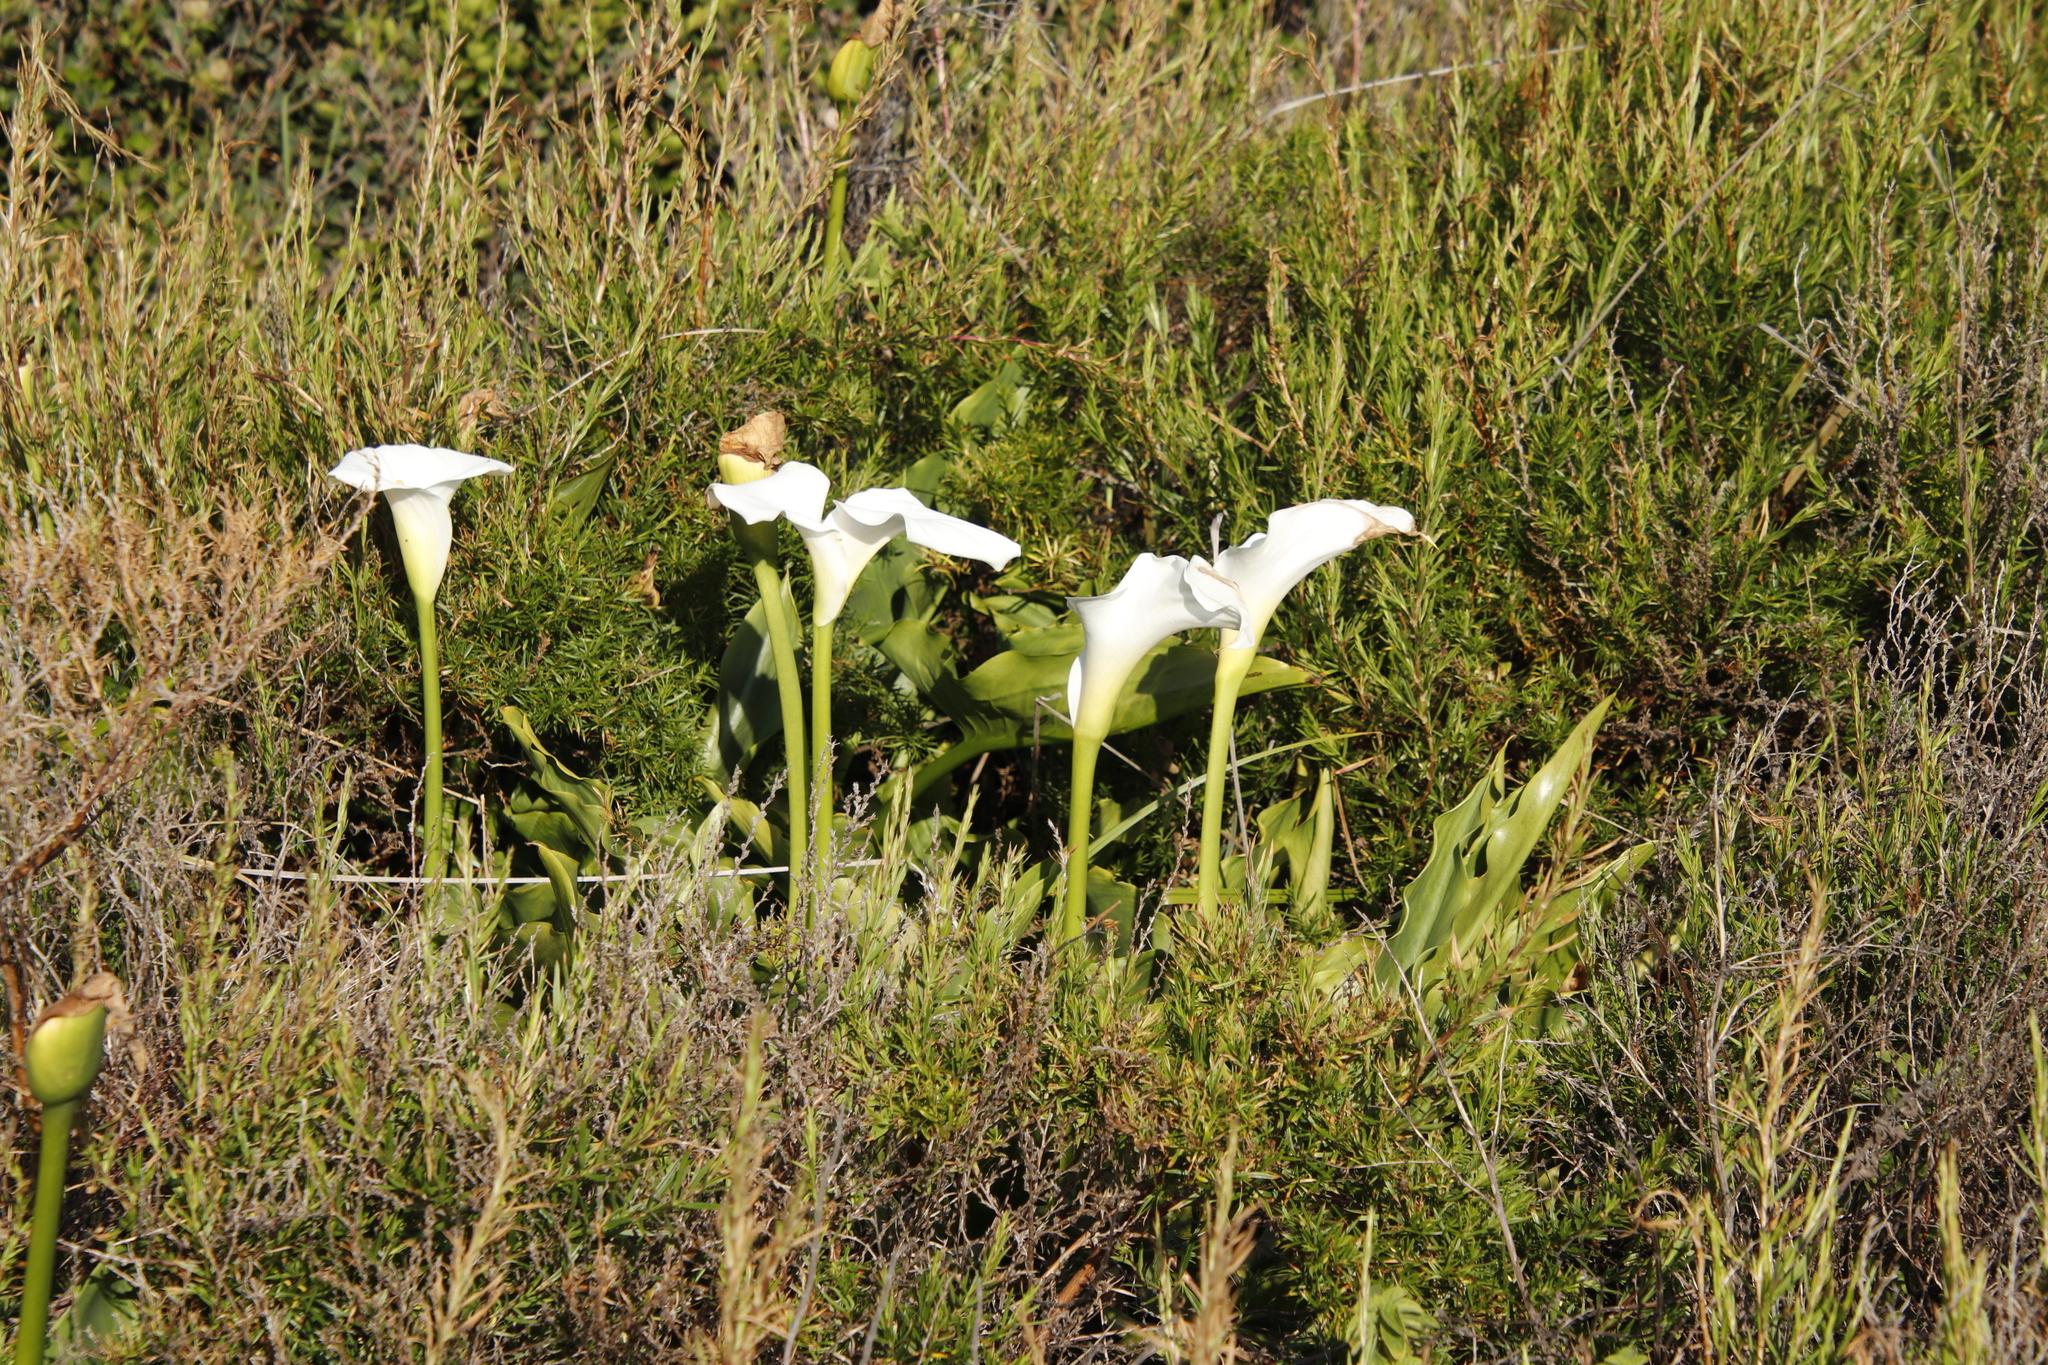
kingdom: Plantae
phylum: Tracheophyta
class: Liliopsida
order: Alismatales
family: Araceae
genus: Zantedeschia
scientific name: Zantedeschia aethiopica
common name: Altar-lily
